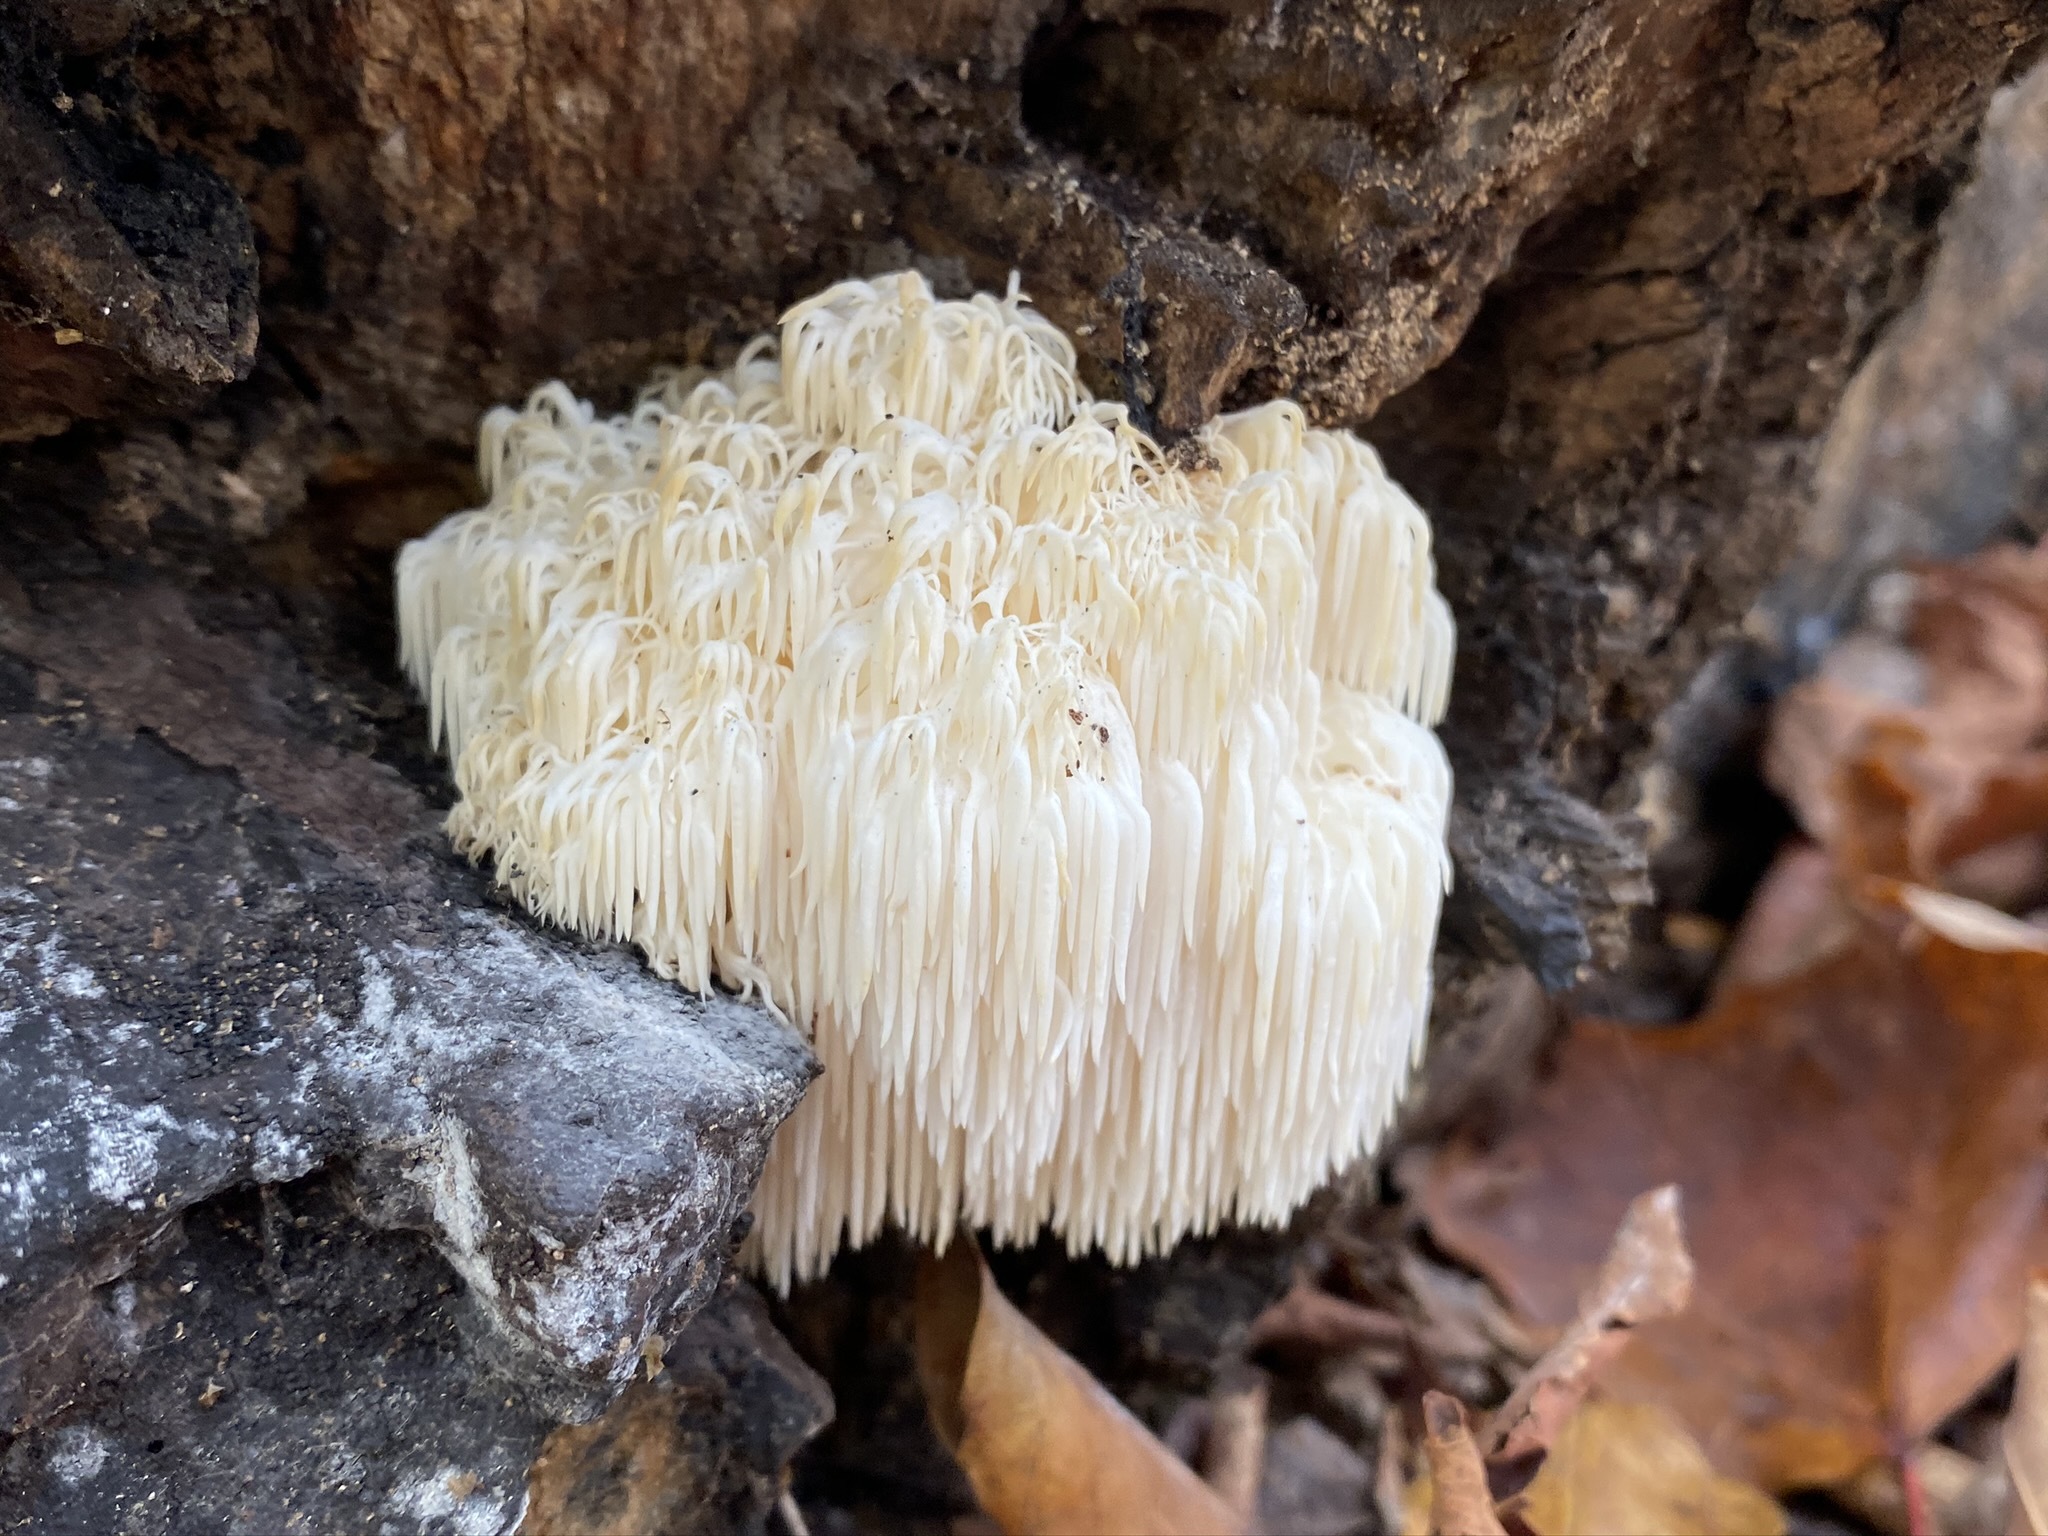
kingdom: Fungi
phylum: Basidiomycota
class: Agaricomycetes
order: Russulales
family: Hericiaceae
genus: Hericium
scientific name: Hericium americanum
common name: Bear's head tooth
